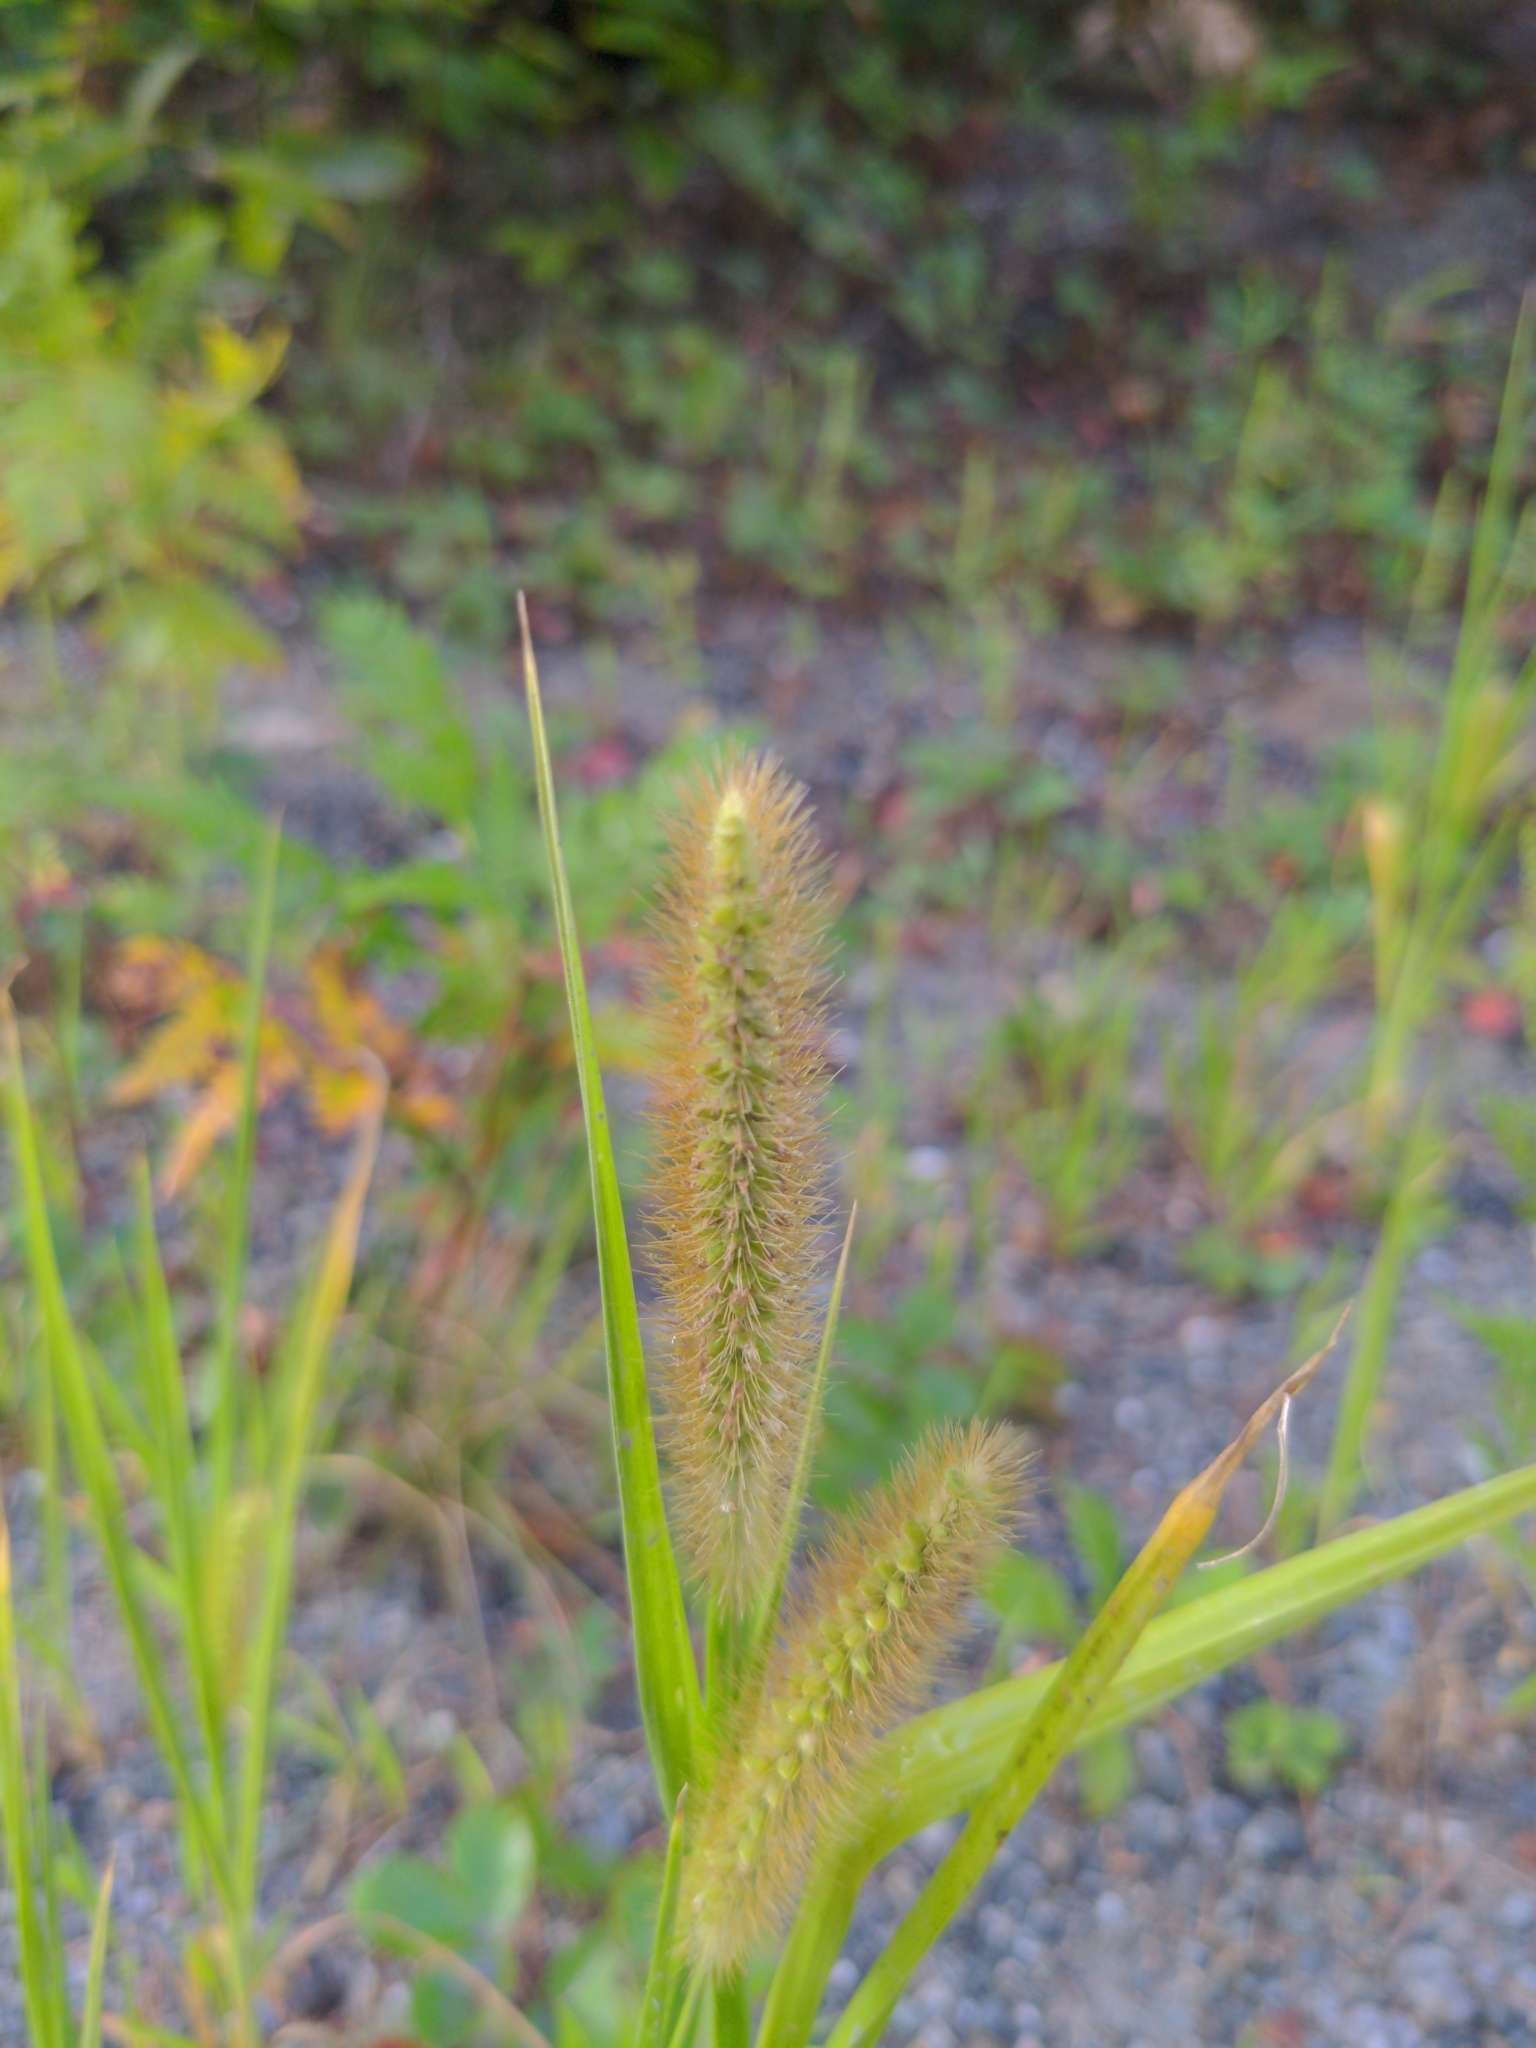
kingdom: Plantae
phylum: Tracheophyta
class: Liliopsida
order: Poales
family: Poaceae
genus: Setaria
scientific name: Setaria pumila
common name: Yellow bristle-grass
